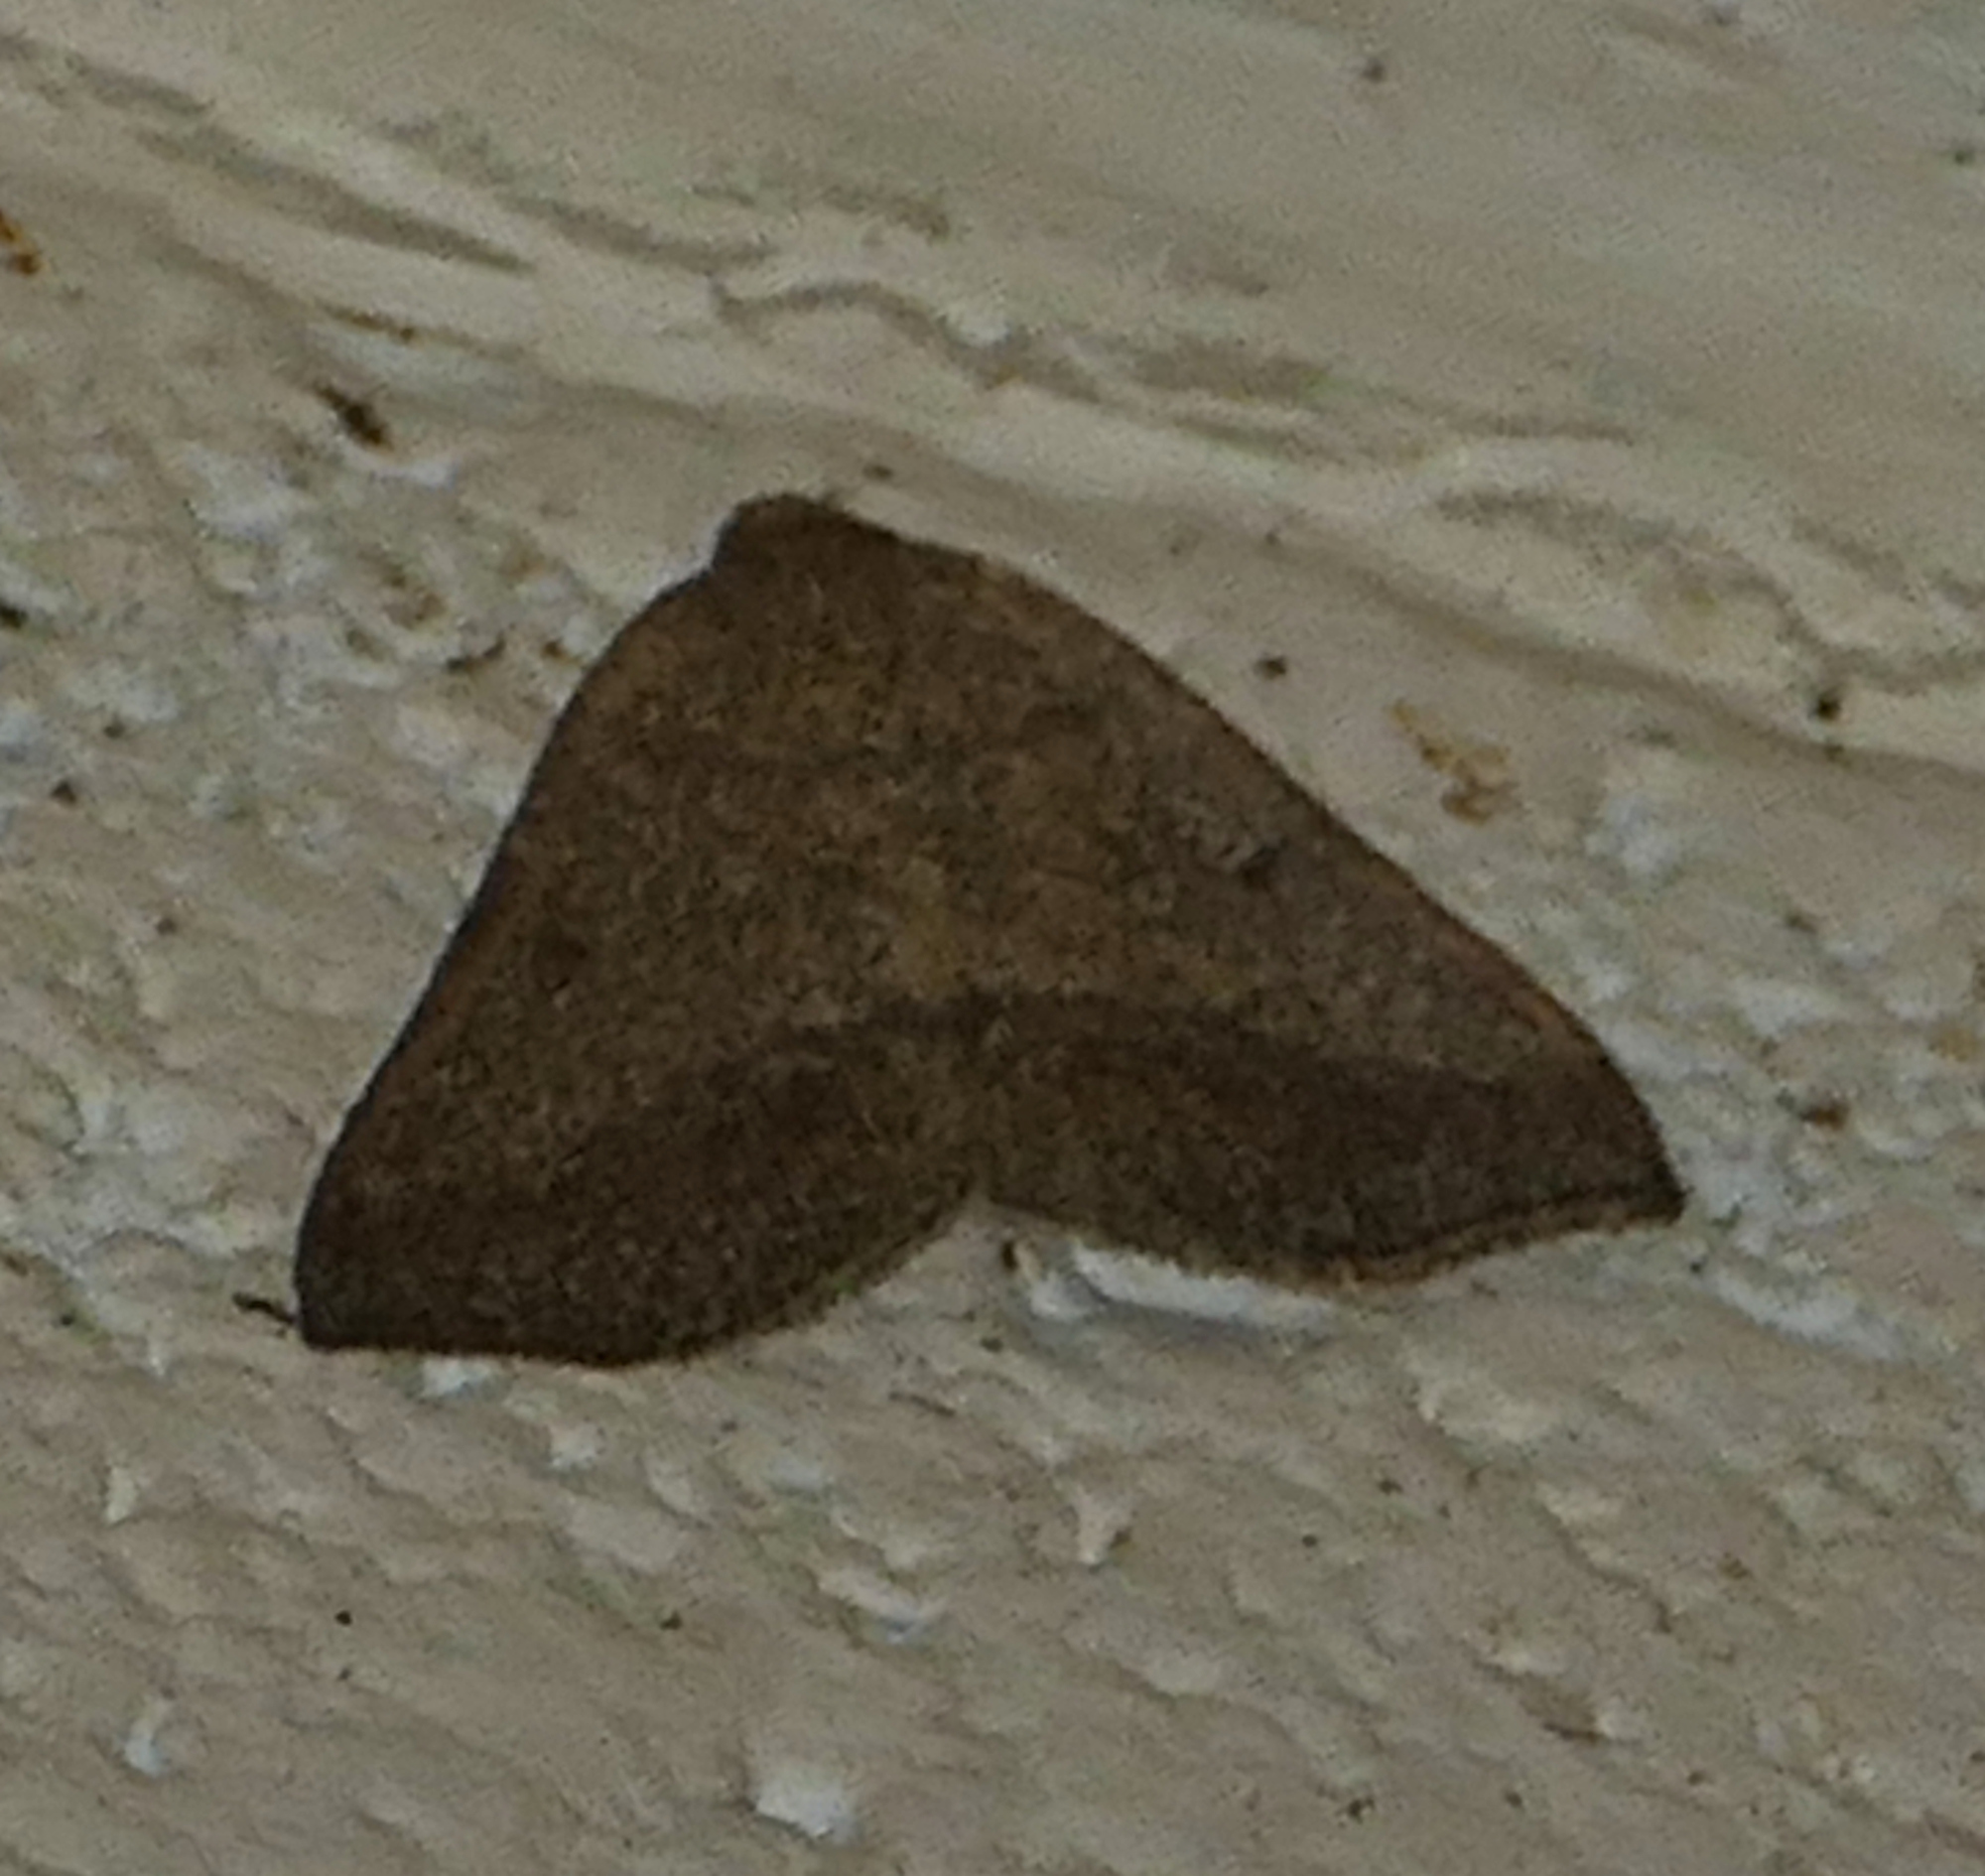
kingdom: Animalia
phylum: Arthropoda
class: Insecta
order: Lepidoptera
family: Geometridae
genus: Macaria
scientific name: Macaria varadaria
